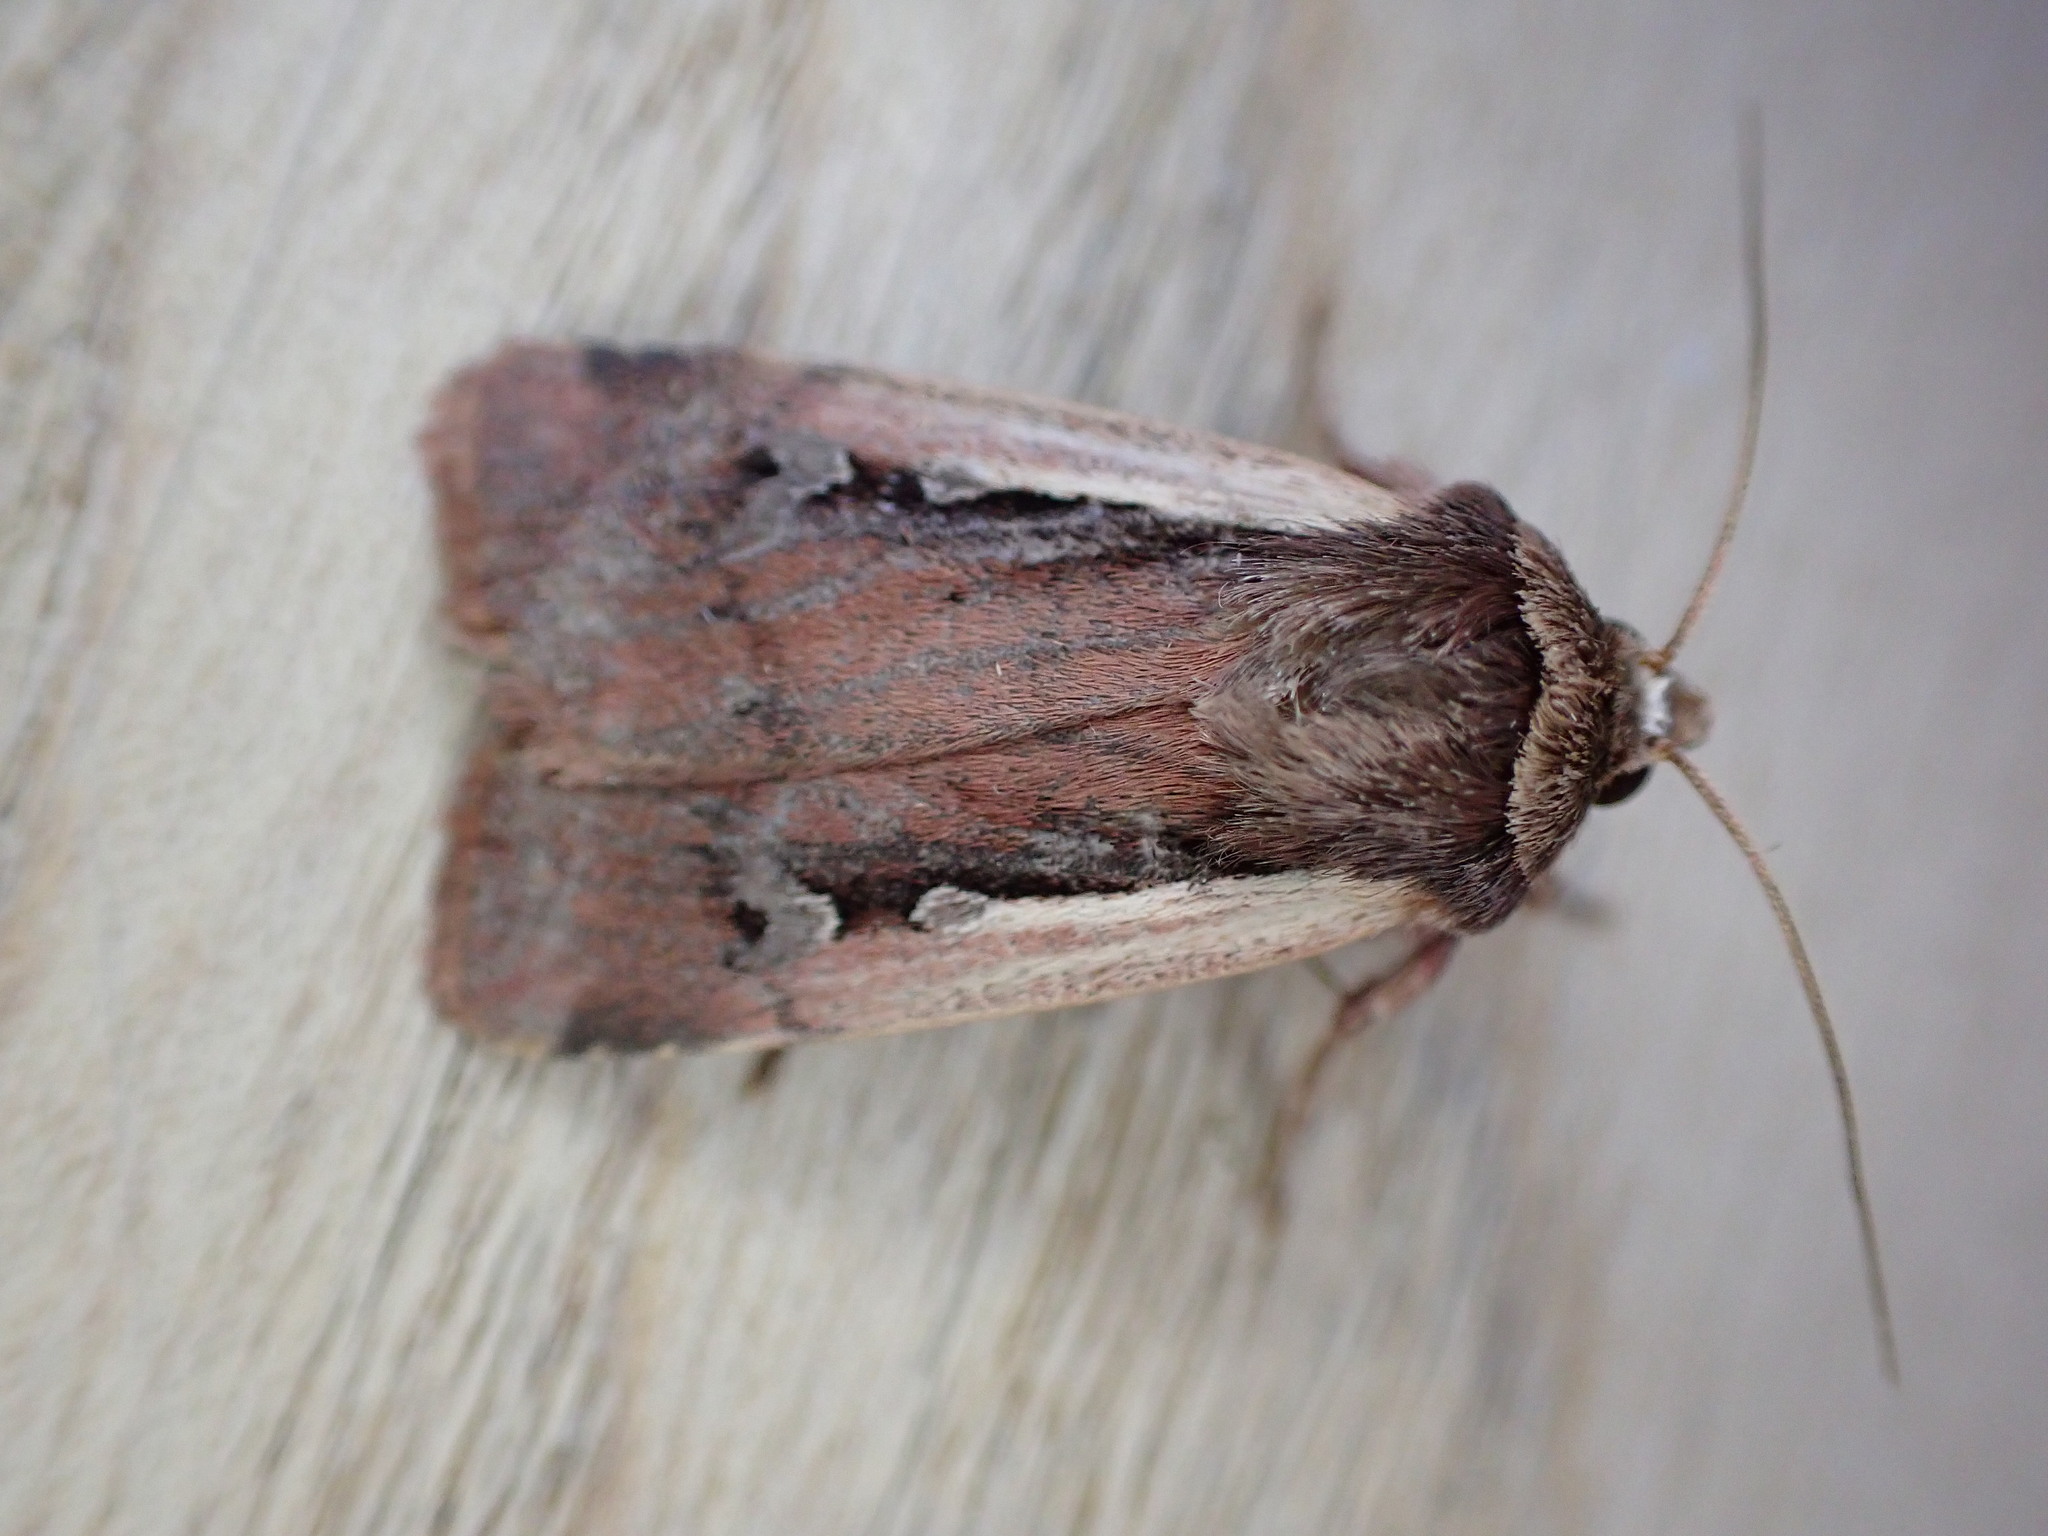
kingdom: Animalia
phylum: Arthropoda
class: Insecta
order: Lepidoptera
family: Noctuidae
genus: Ochropleura
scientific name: Ochropleura plecta
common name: Flame shoulder
